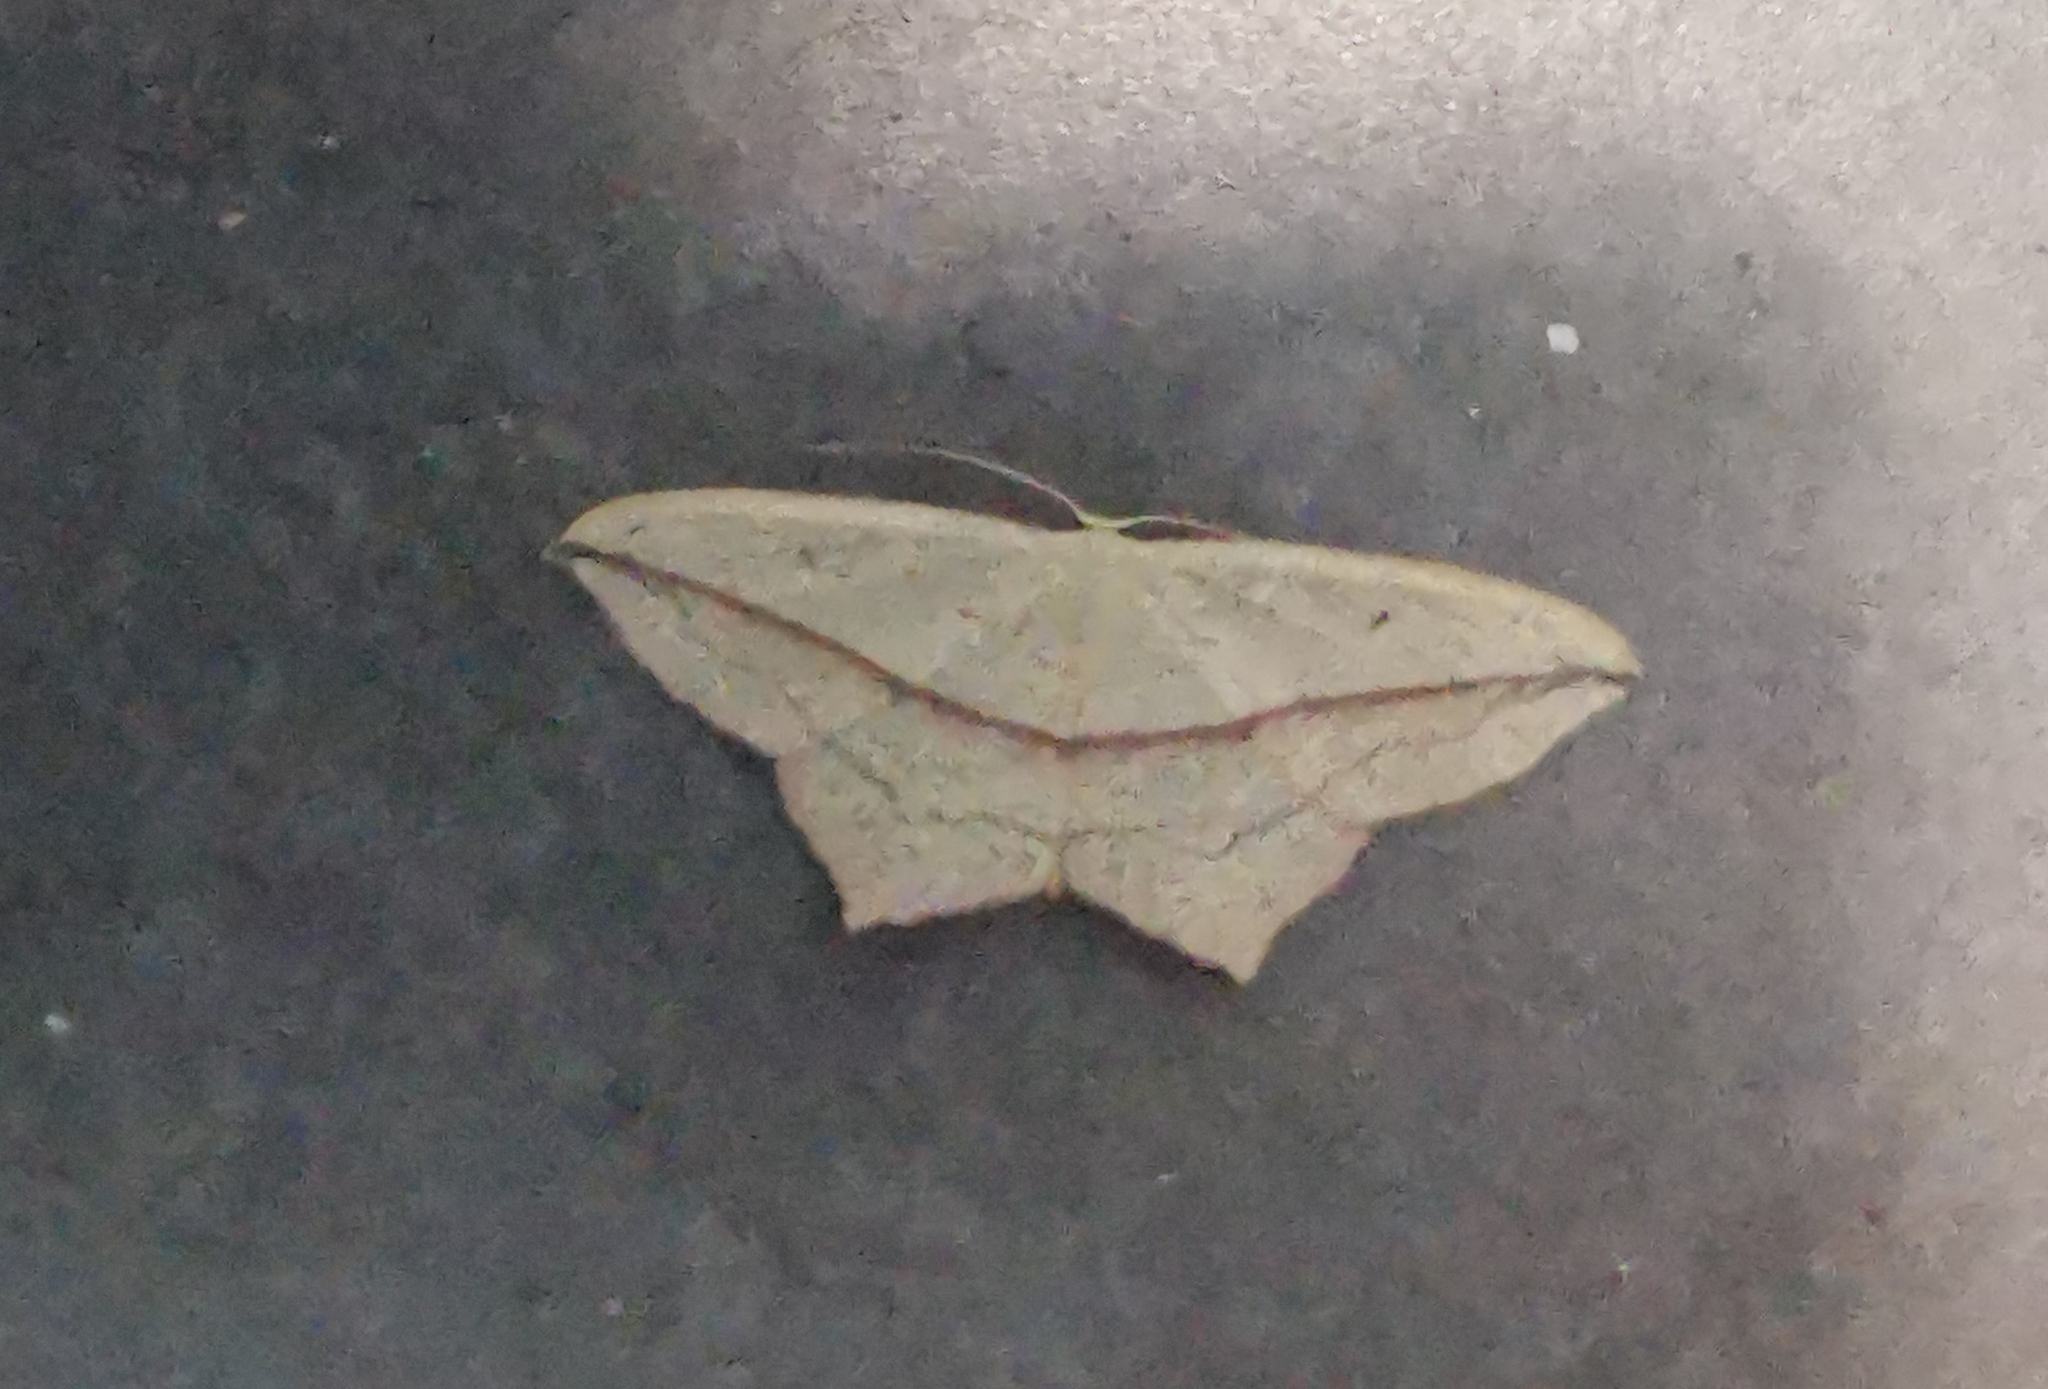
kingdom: Animalia
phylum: Arthropoda
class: Insecta
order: Lepidoptera
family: Geometridae
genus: Timandra
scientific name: Timandra comae
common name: Blood-vein
